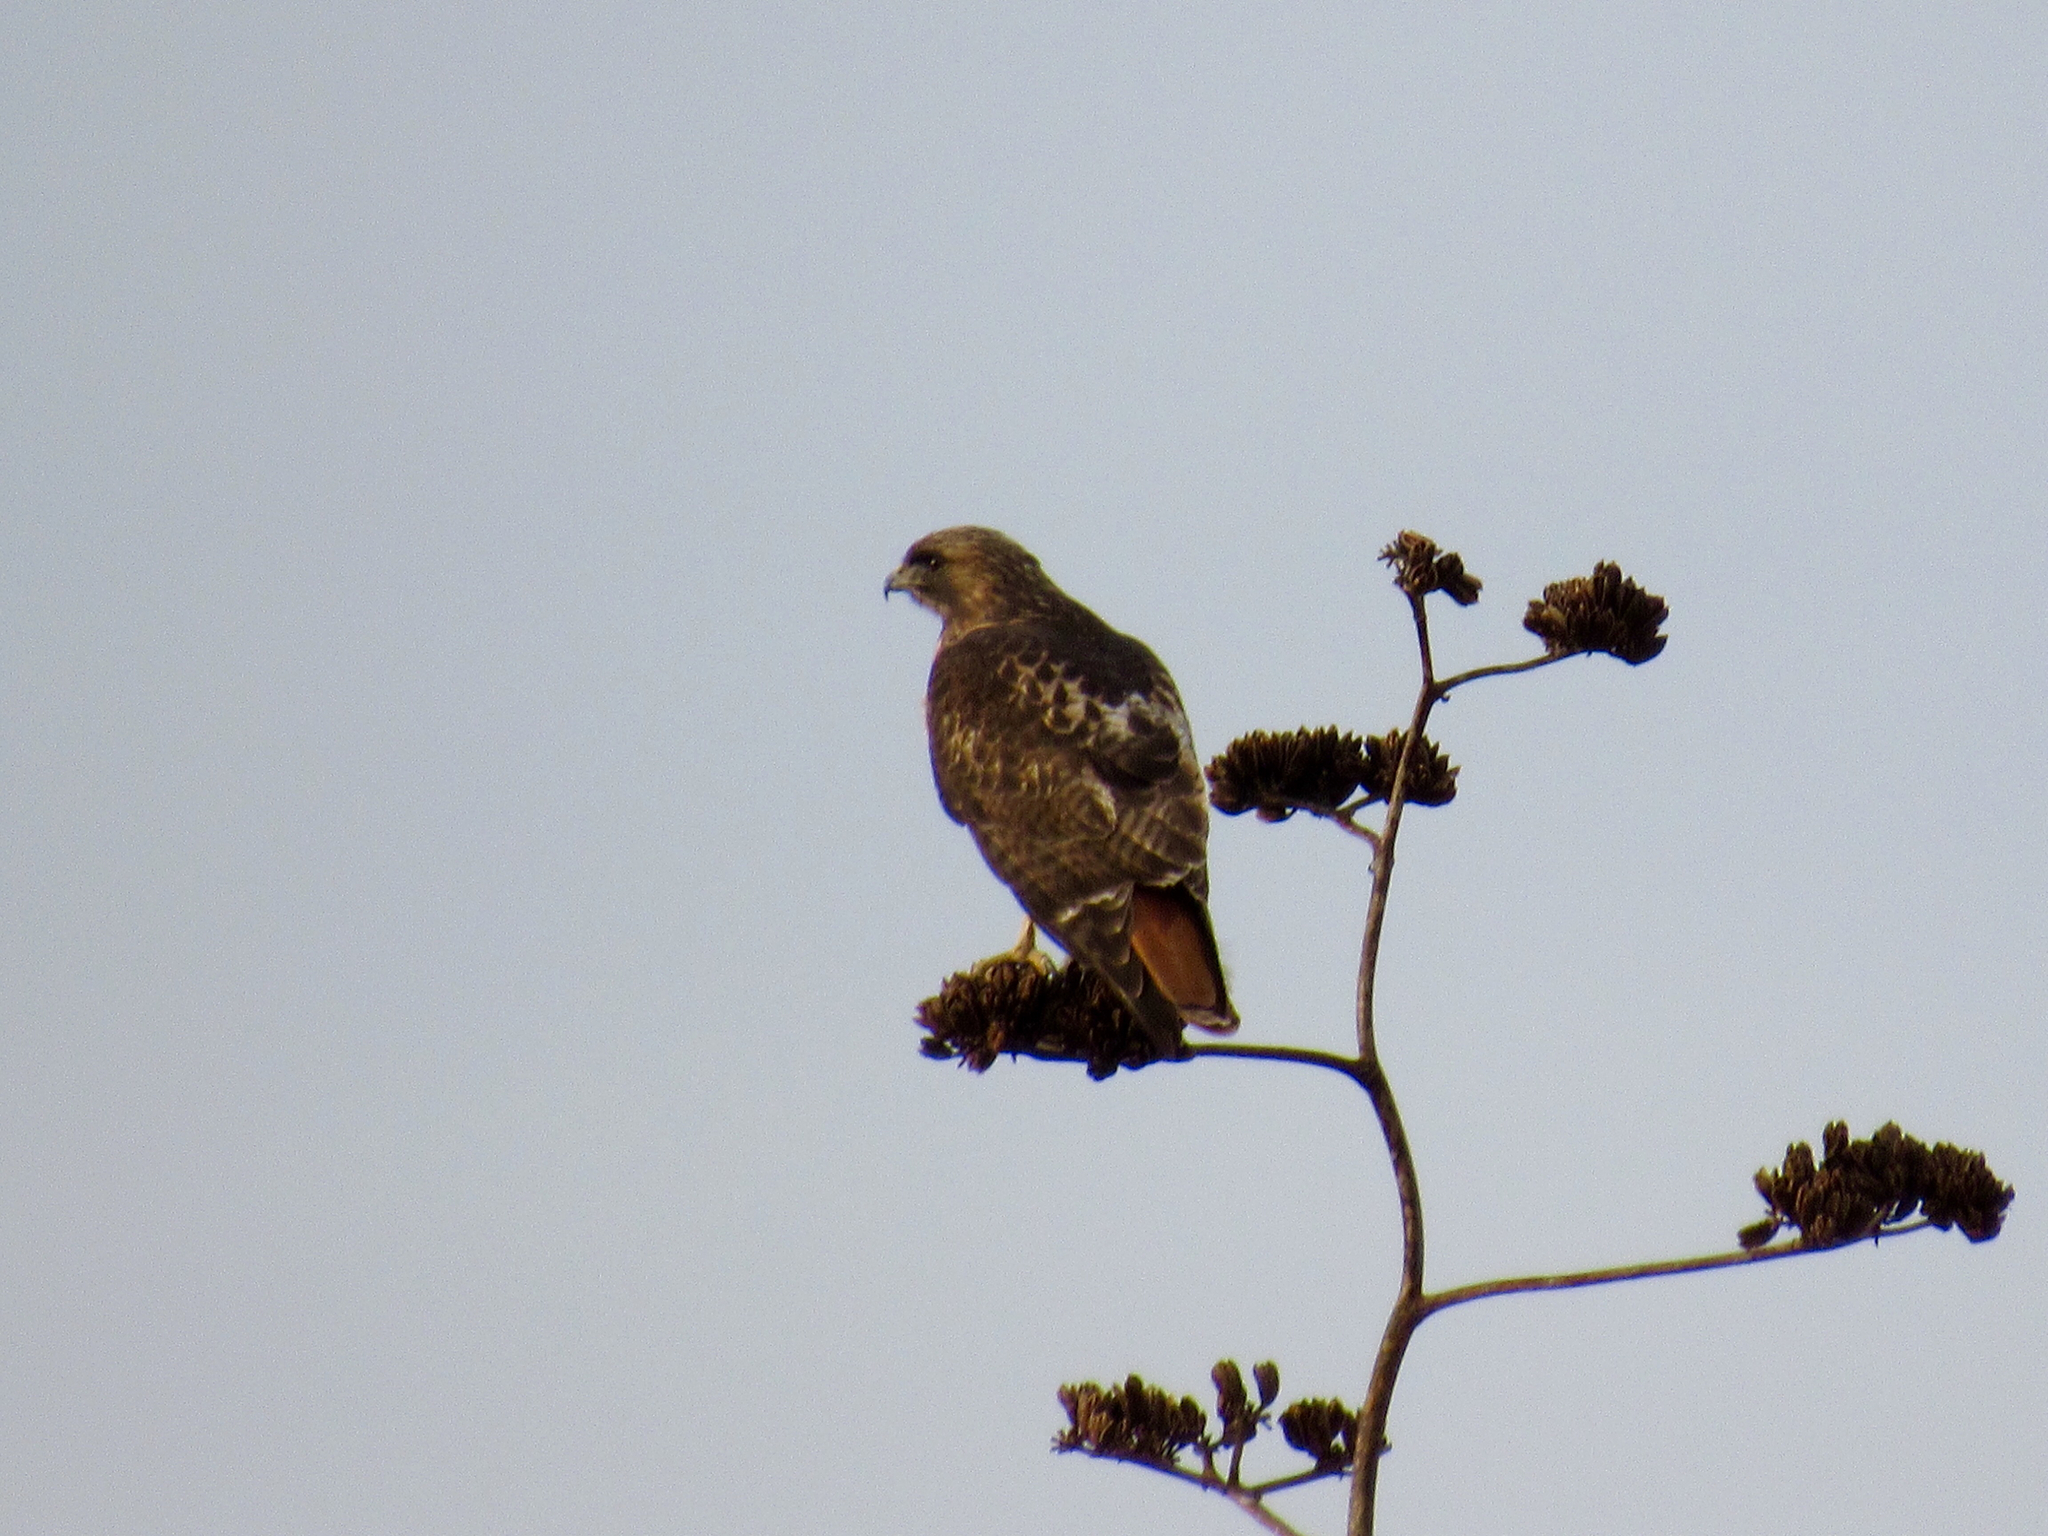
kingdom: Animalia
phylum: Chordata
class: Aves
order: Accipitriformes
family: Accipitridae
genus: Buteo
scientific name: Buteo jamaicensis
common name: Red-tailed hawk
